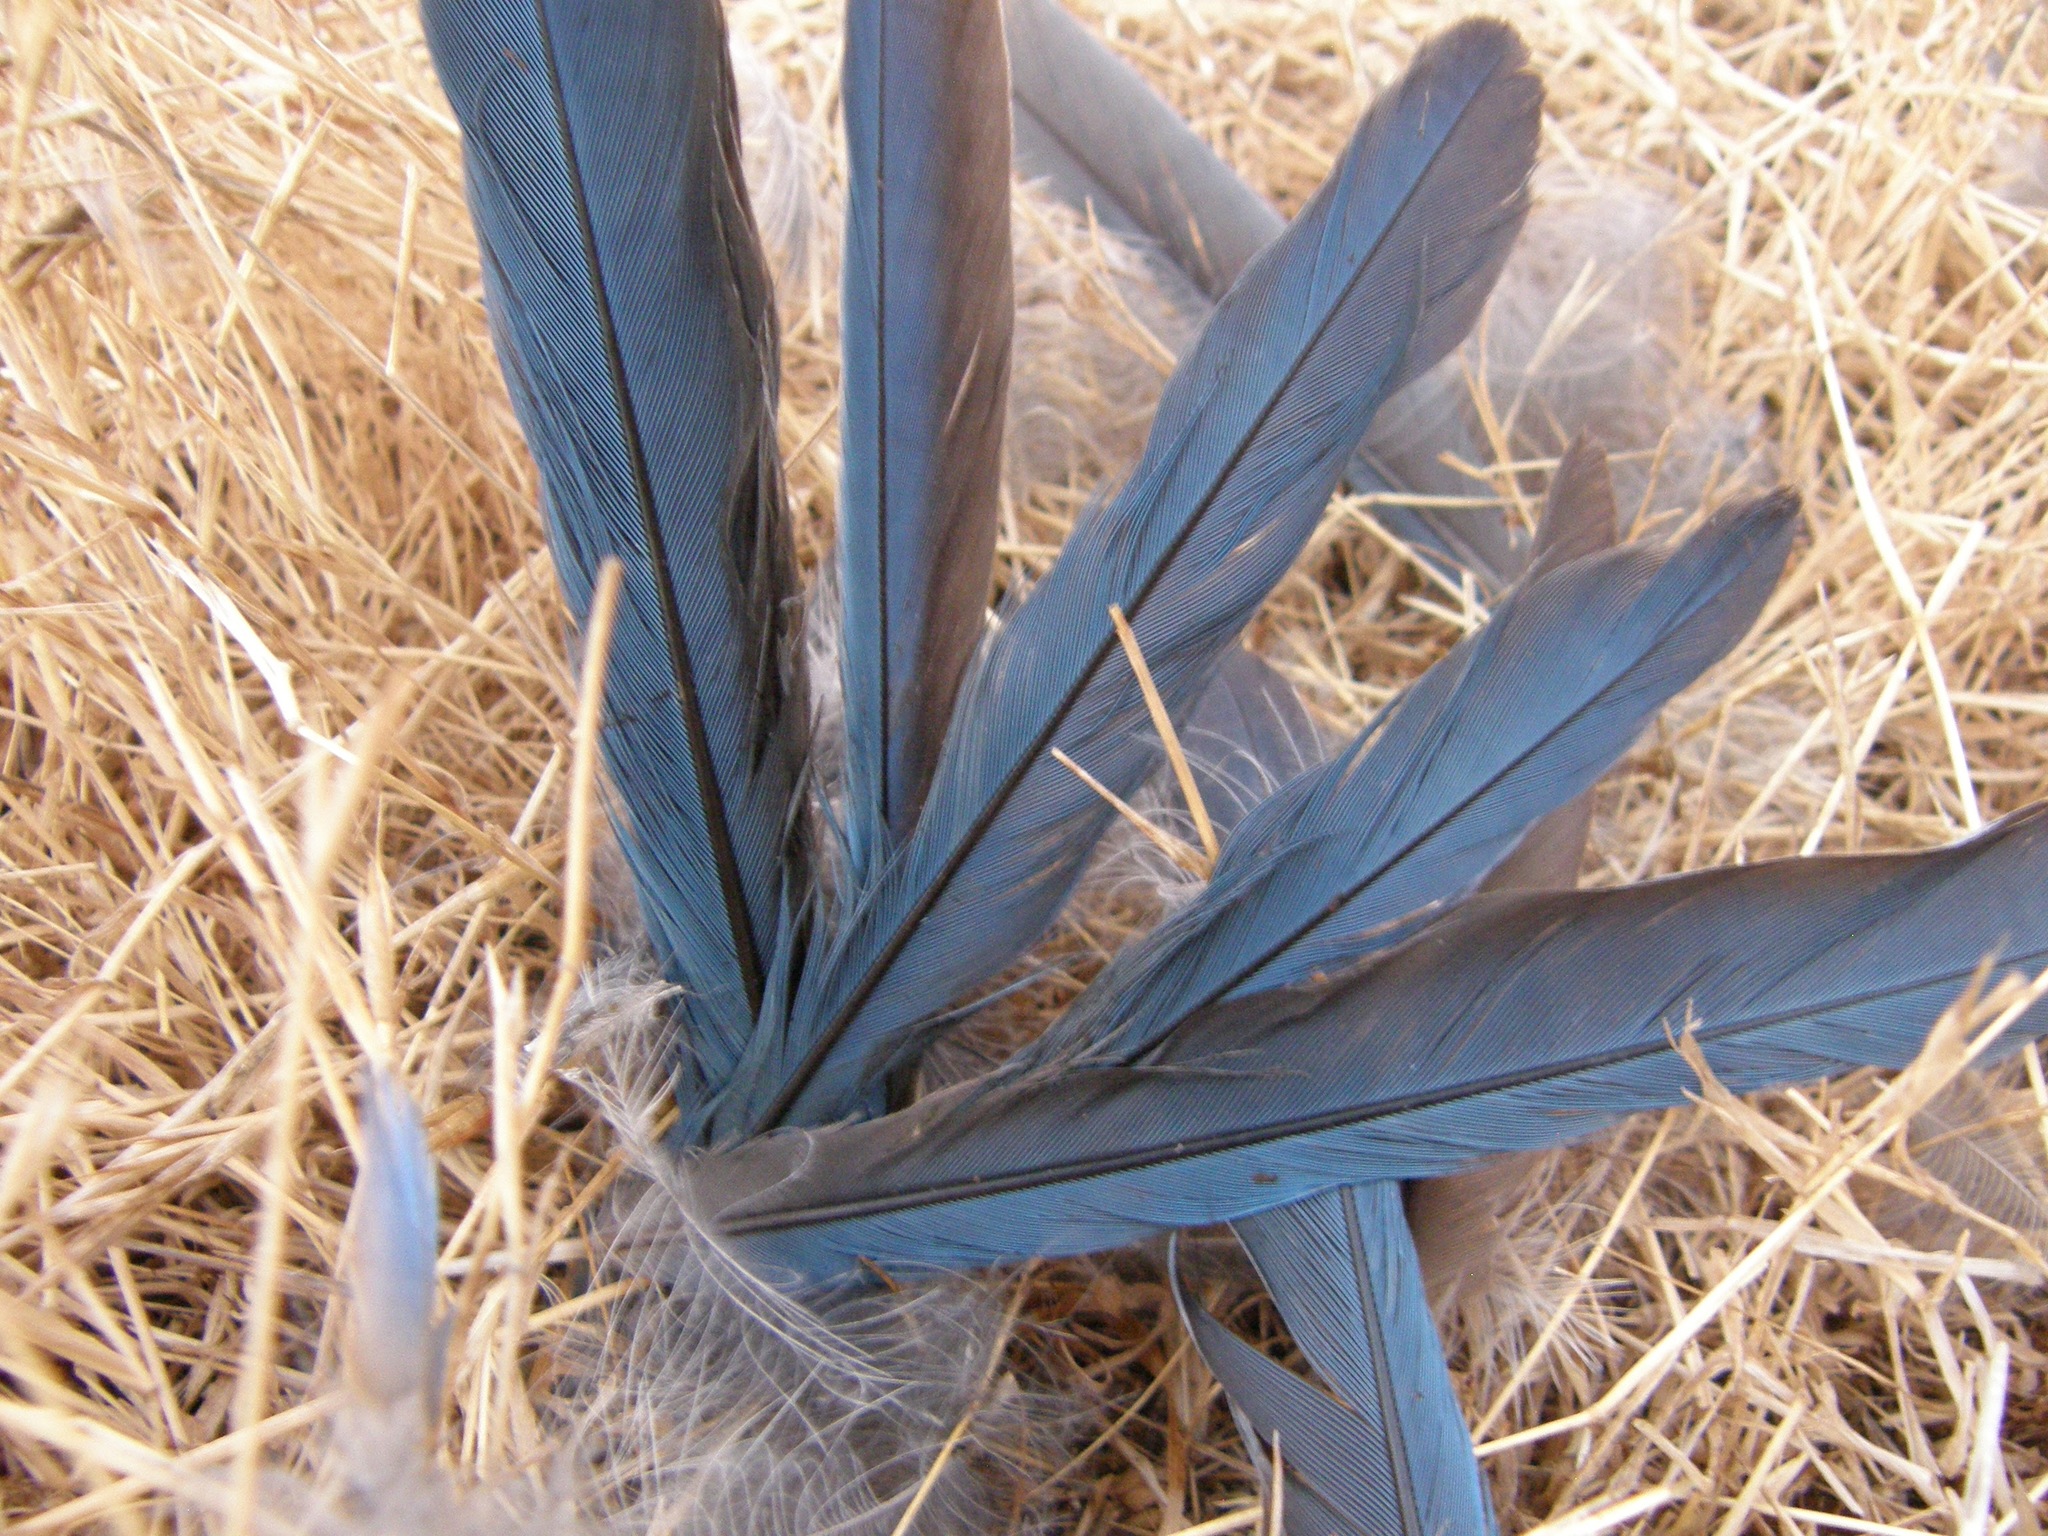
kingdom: Animalia
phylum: Chordata
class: Aves
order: Passeriformes
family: Corvidae
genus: Aphelocoma
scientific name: Aphelocoma californica
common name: California scrub-jay
